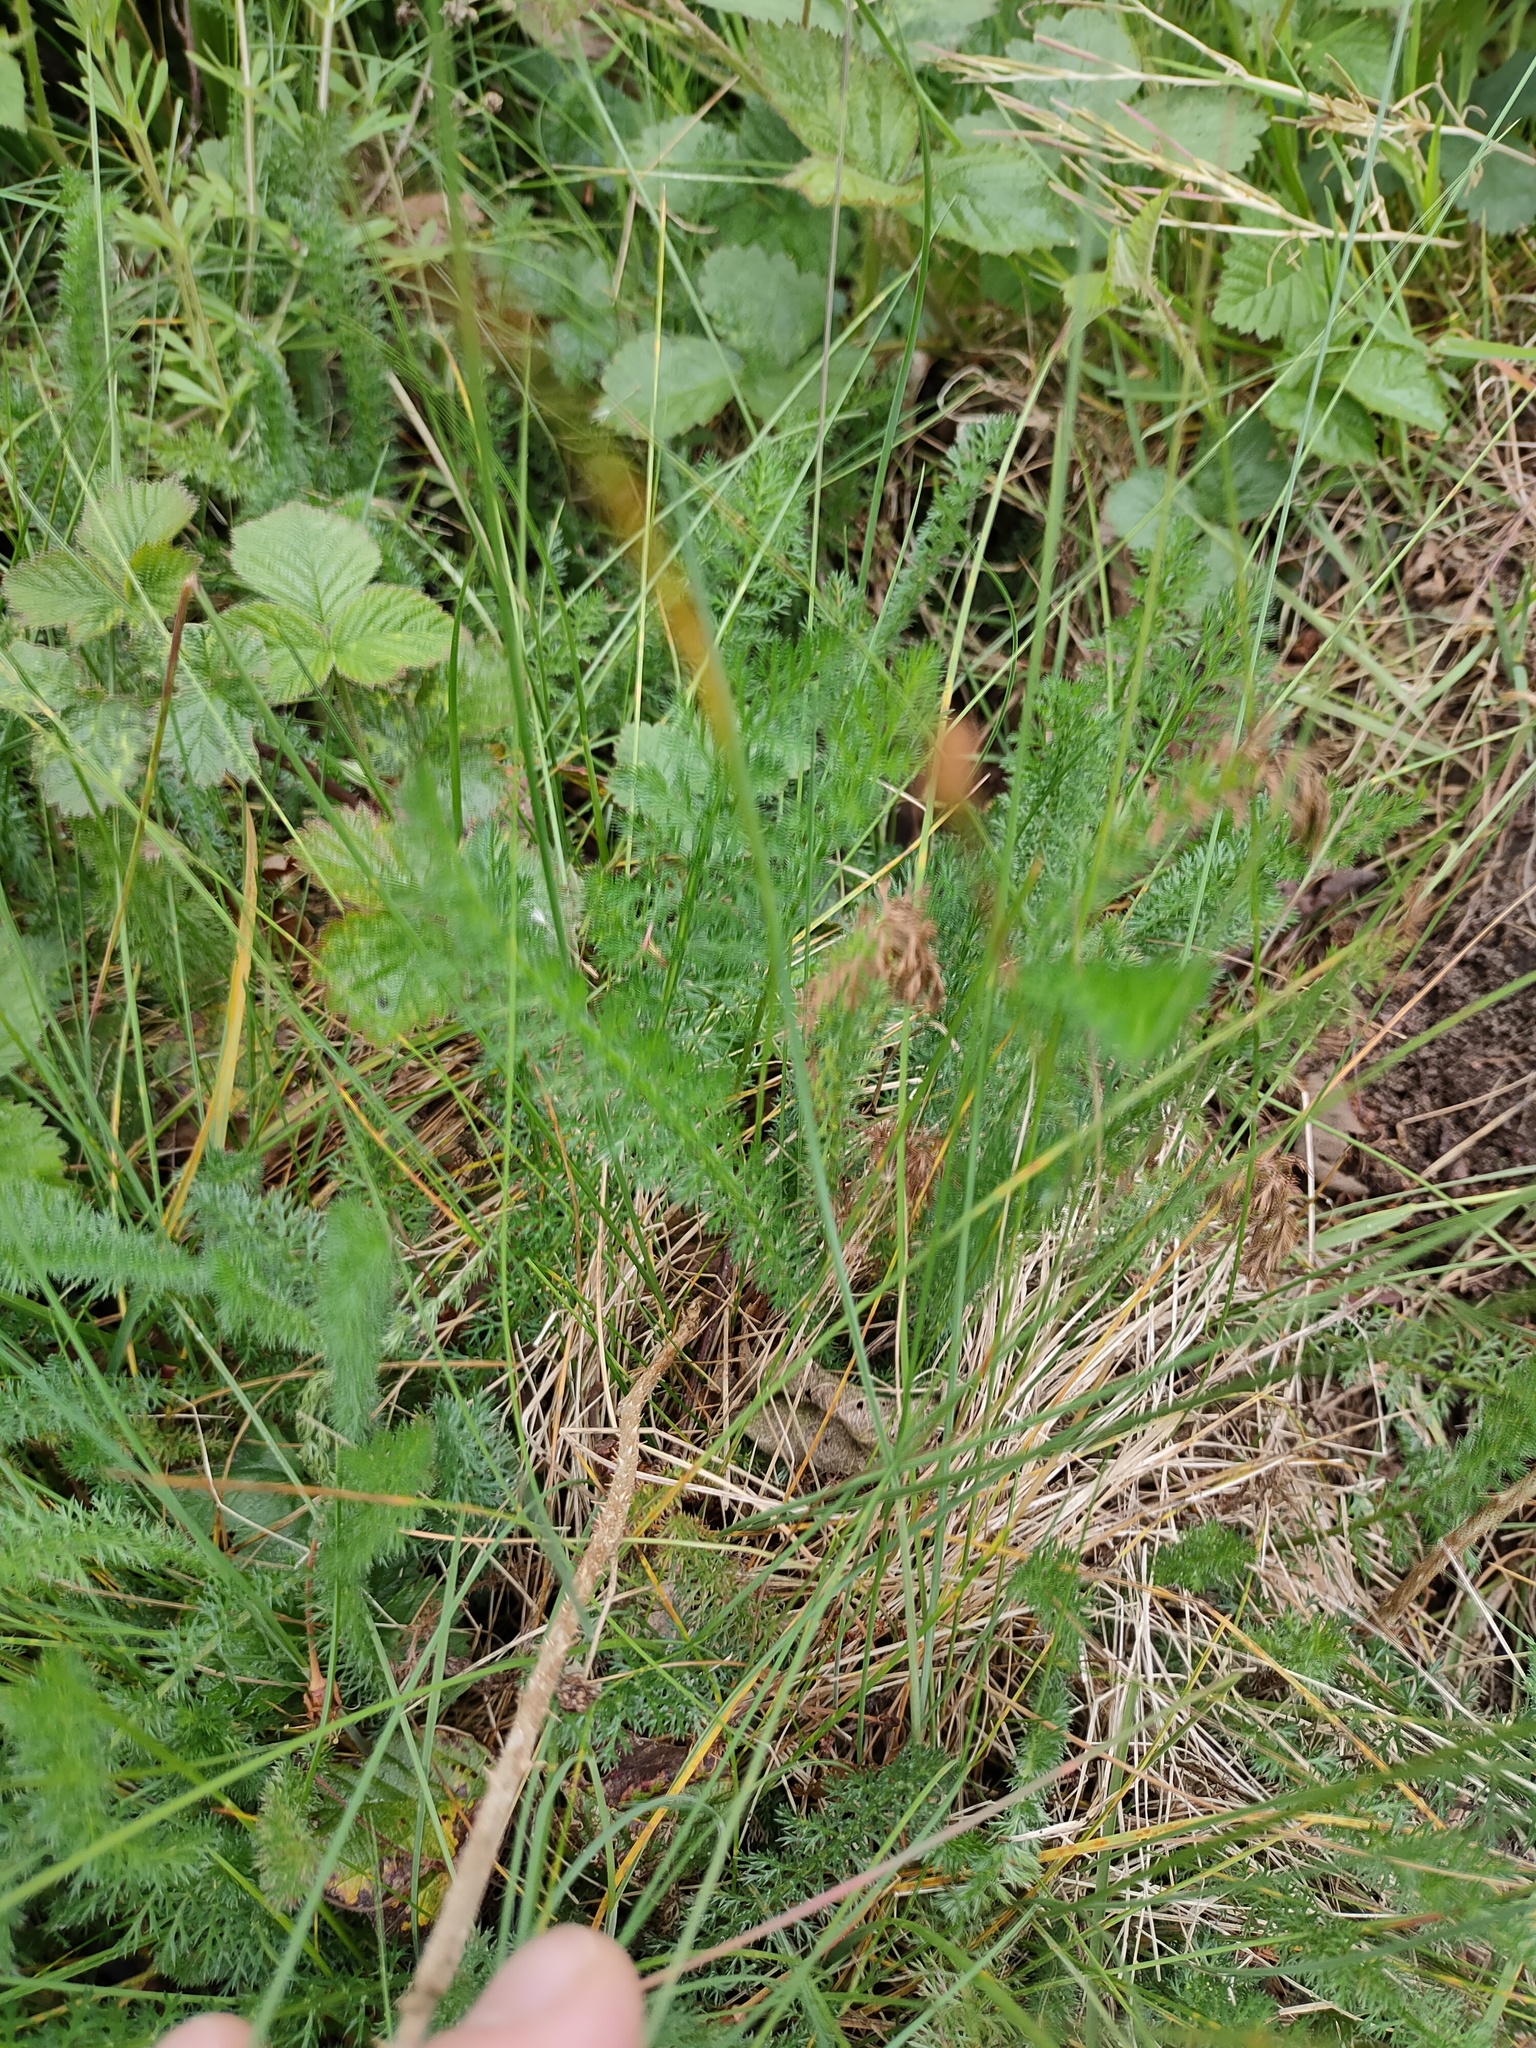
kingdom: Plantae
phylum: Tracheophyta
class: Magnoliopsida
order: Asterales
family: Asteraceae
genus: Achillea
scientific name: Achillea millefolium
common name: Yarrow
